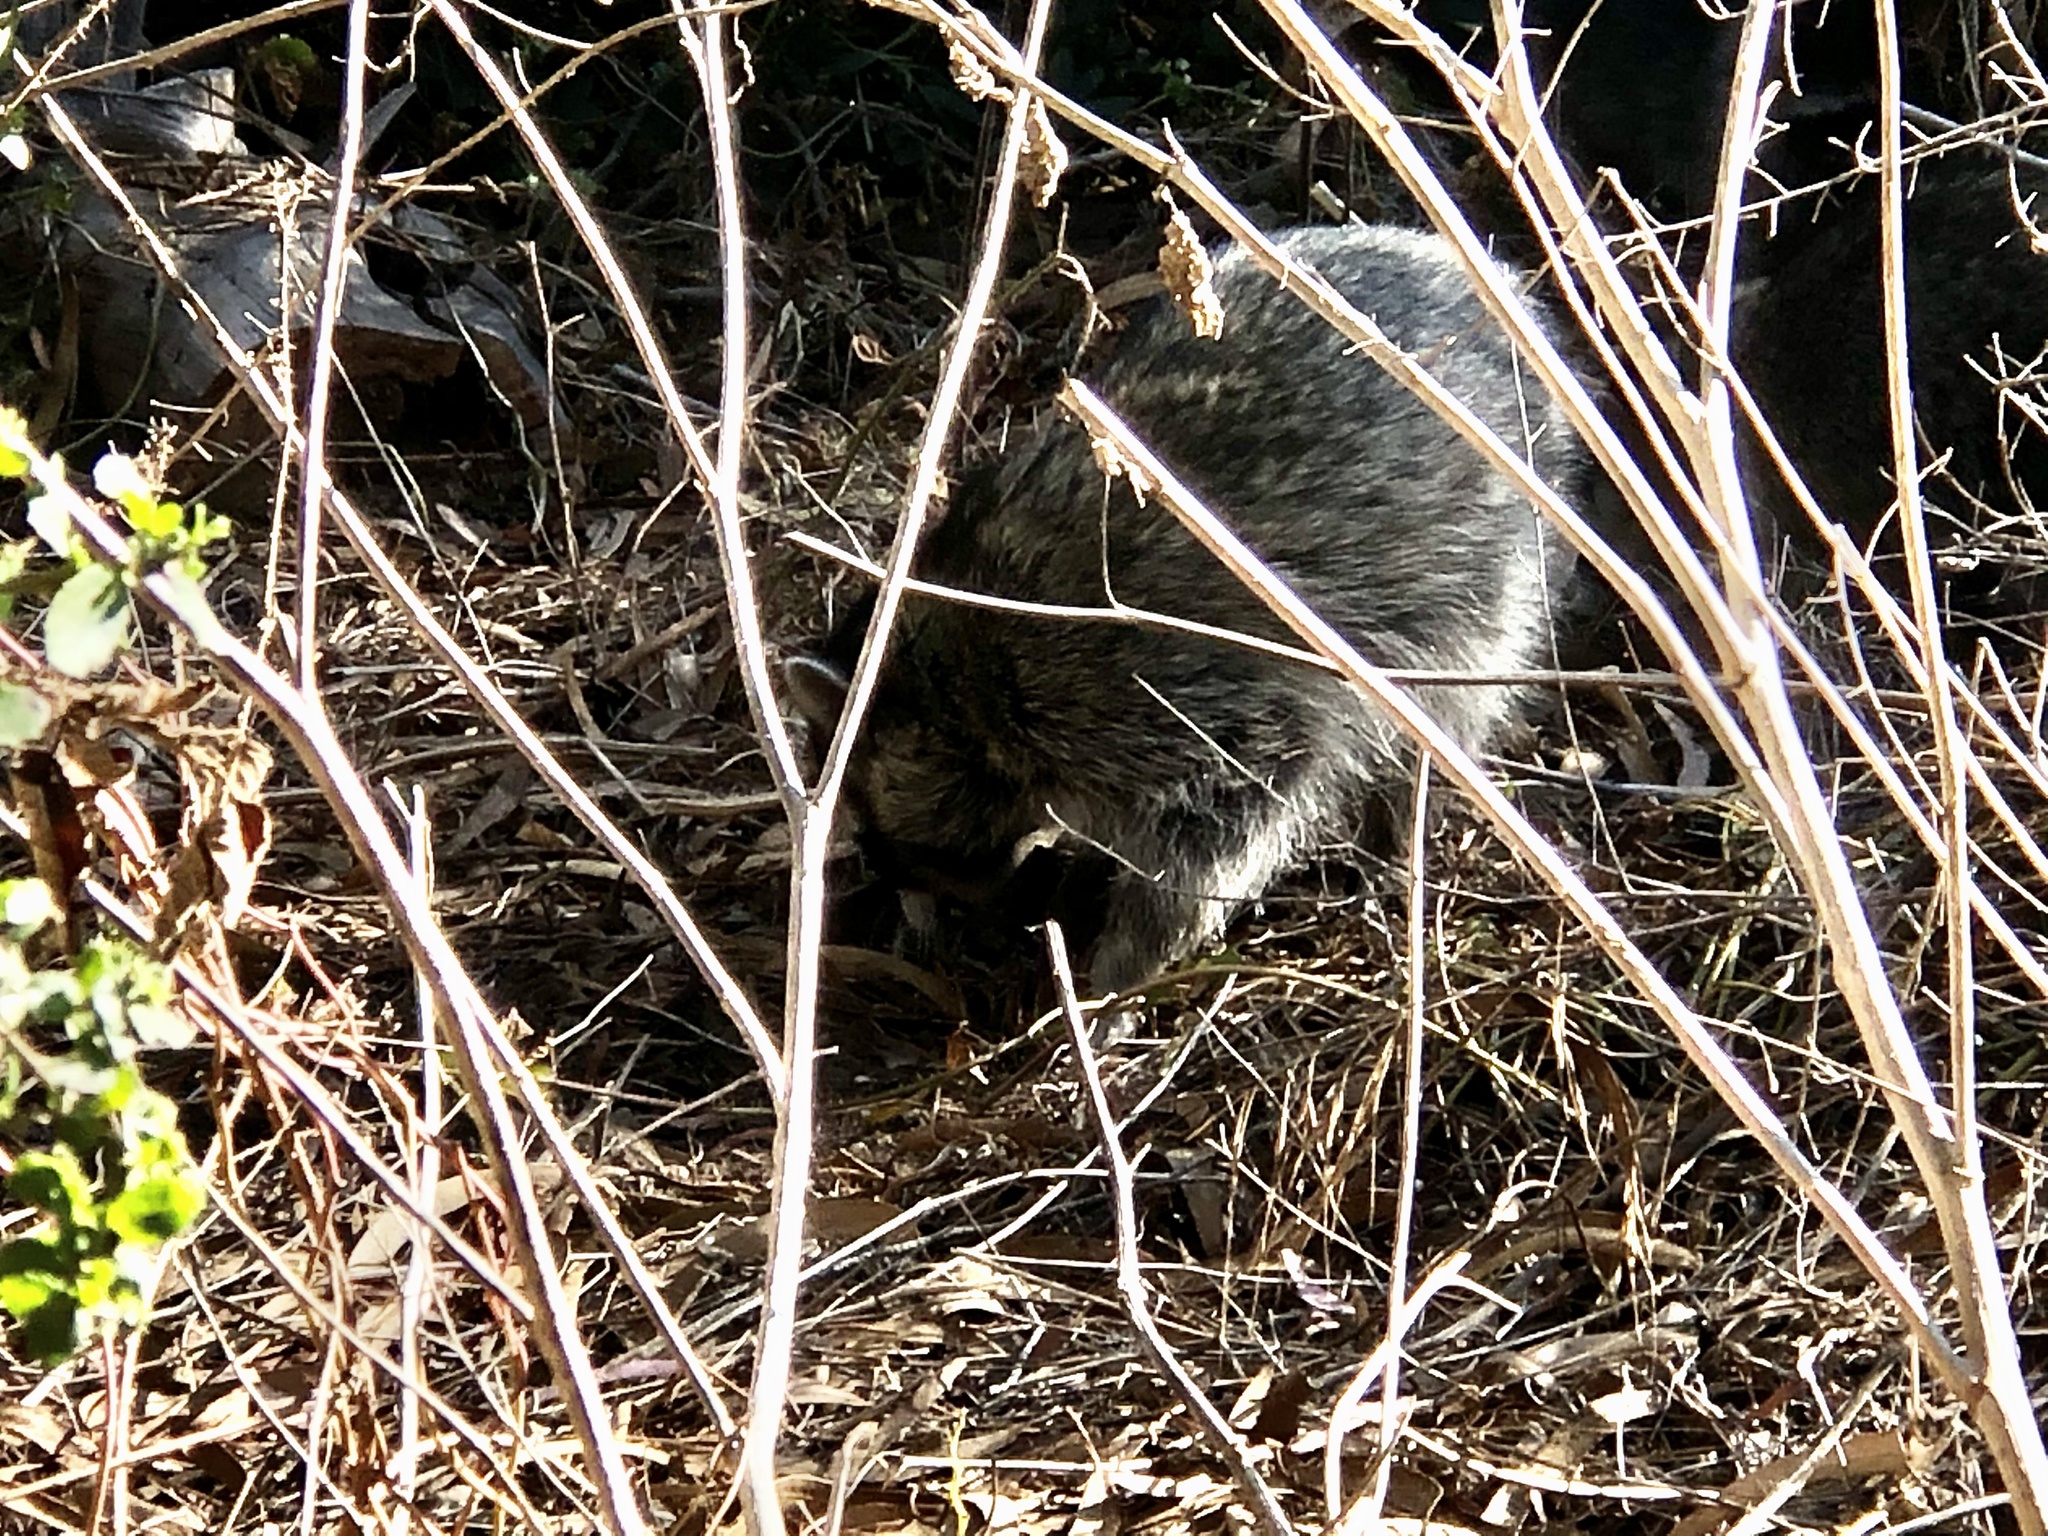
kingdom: Animalia
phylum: Chordata
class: Mammalia
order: Carnivora
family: Procyonidae
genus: Procyon
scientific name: Procyon lotor
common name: Raccoon
